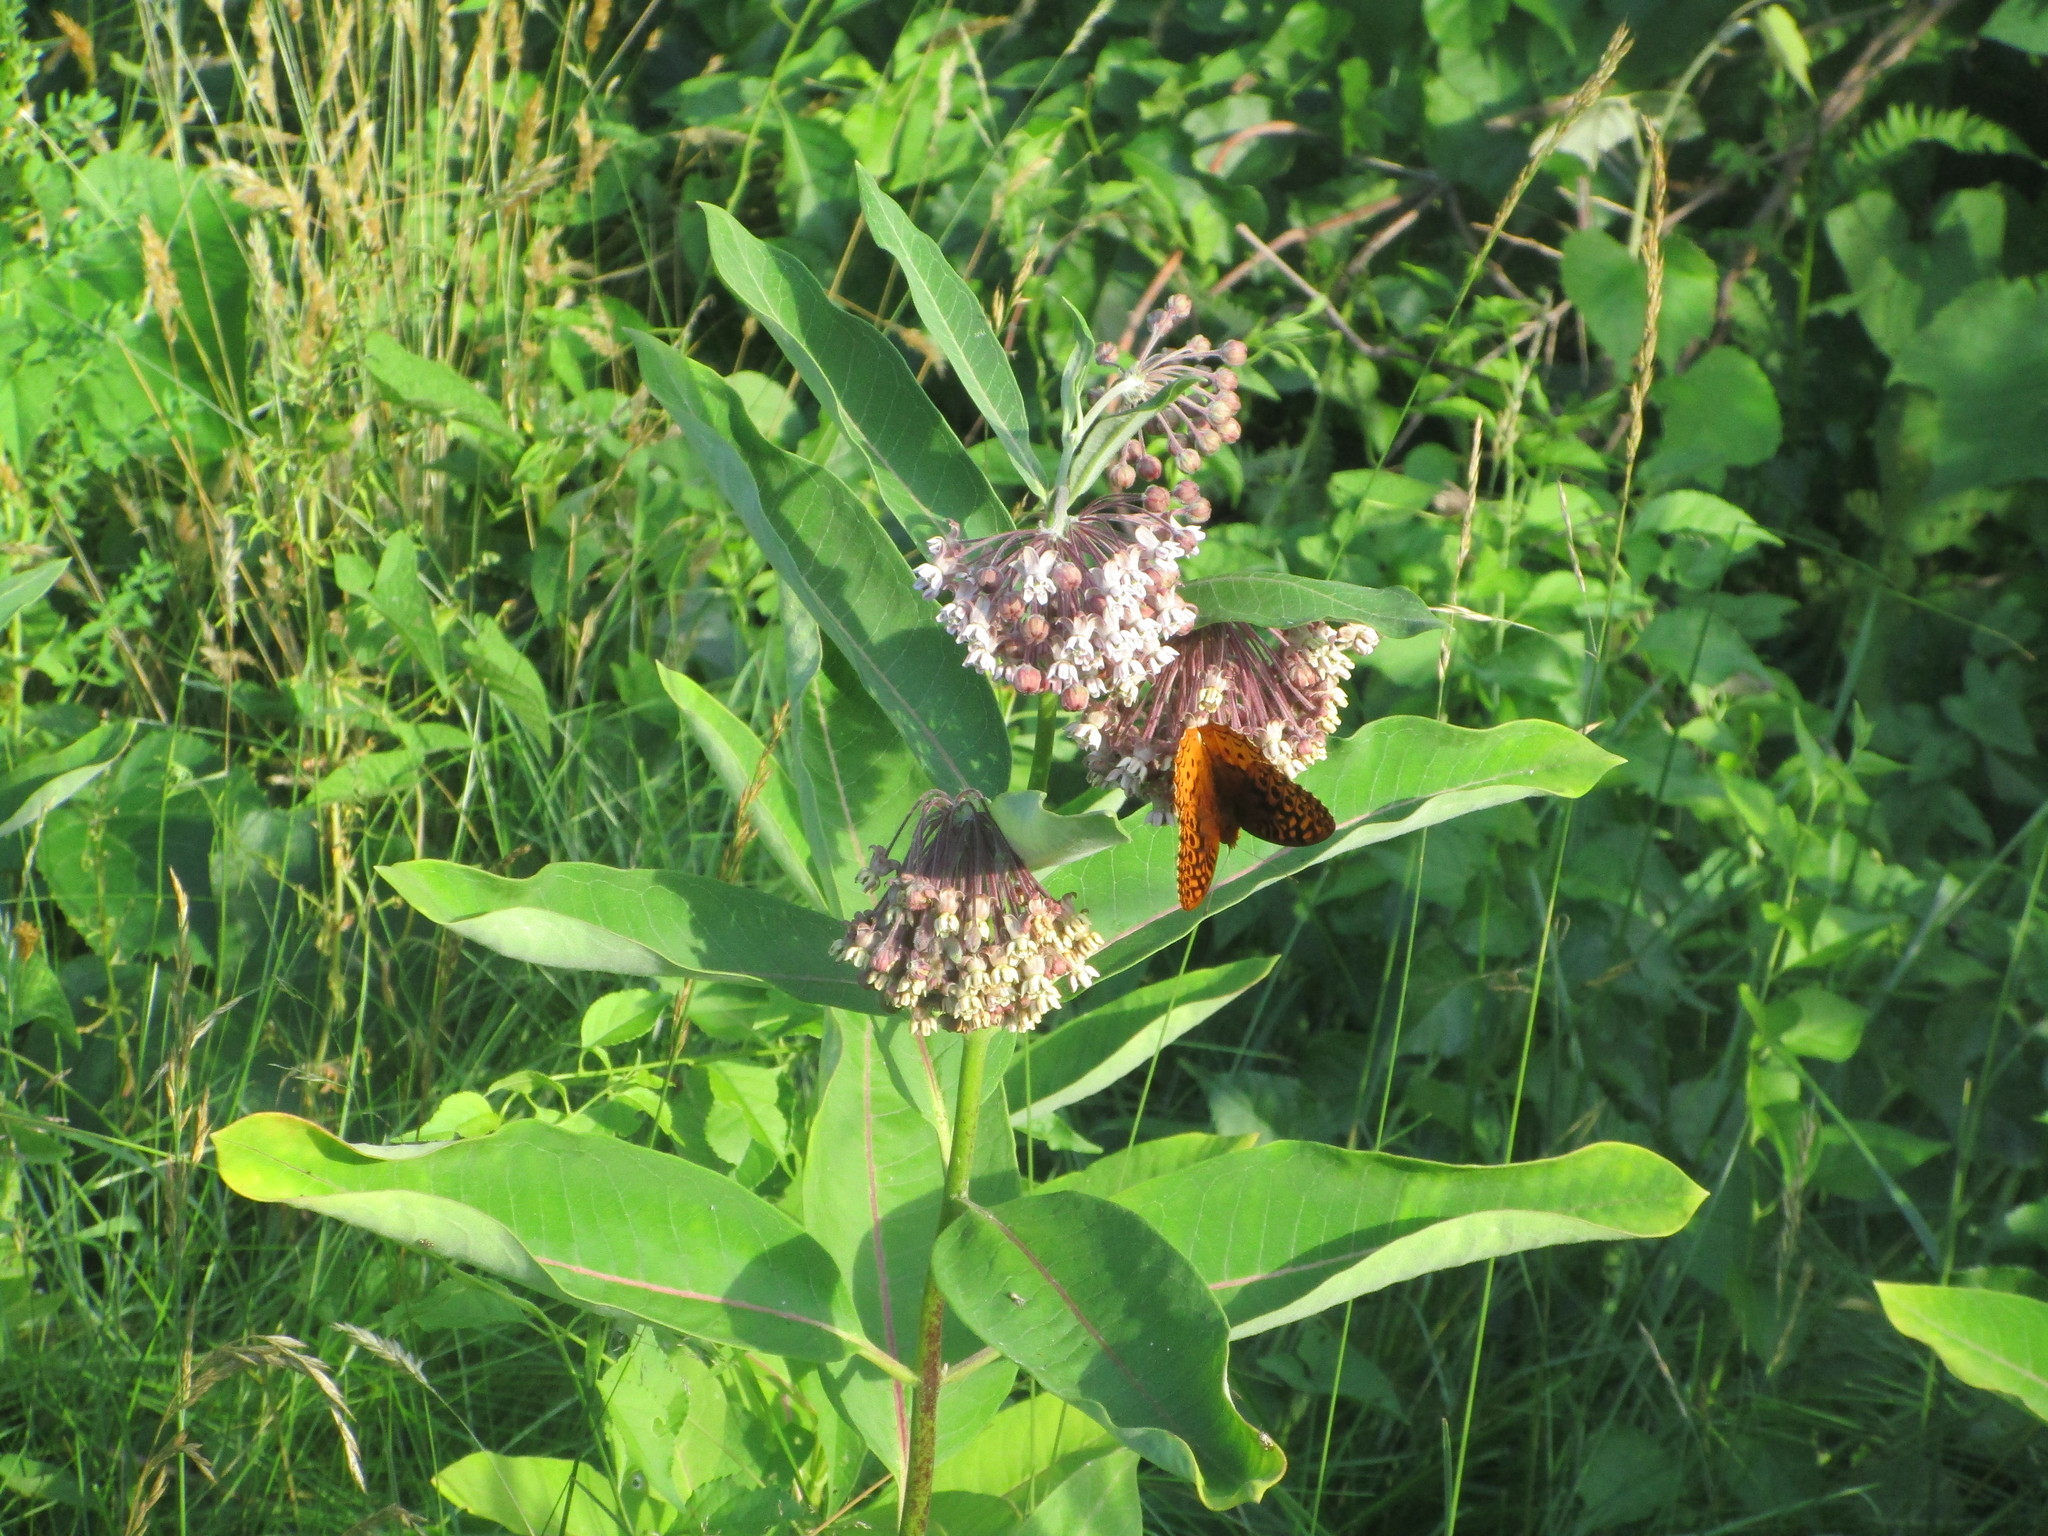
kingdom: Animalia
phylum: Arthropoda
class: Insecta
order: Lepidoptera
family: Nymphalidae
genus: Speyeria
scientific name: Speyeria cybele
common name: Great spangled fritillary
